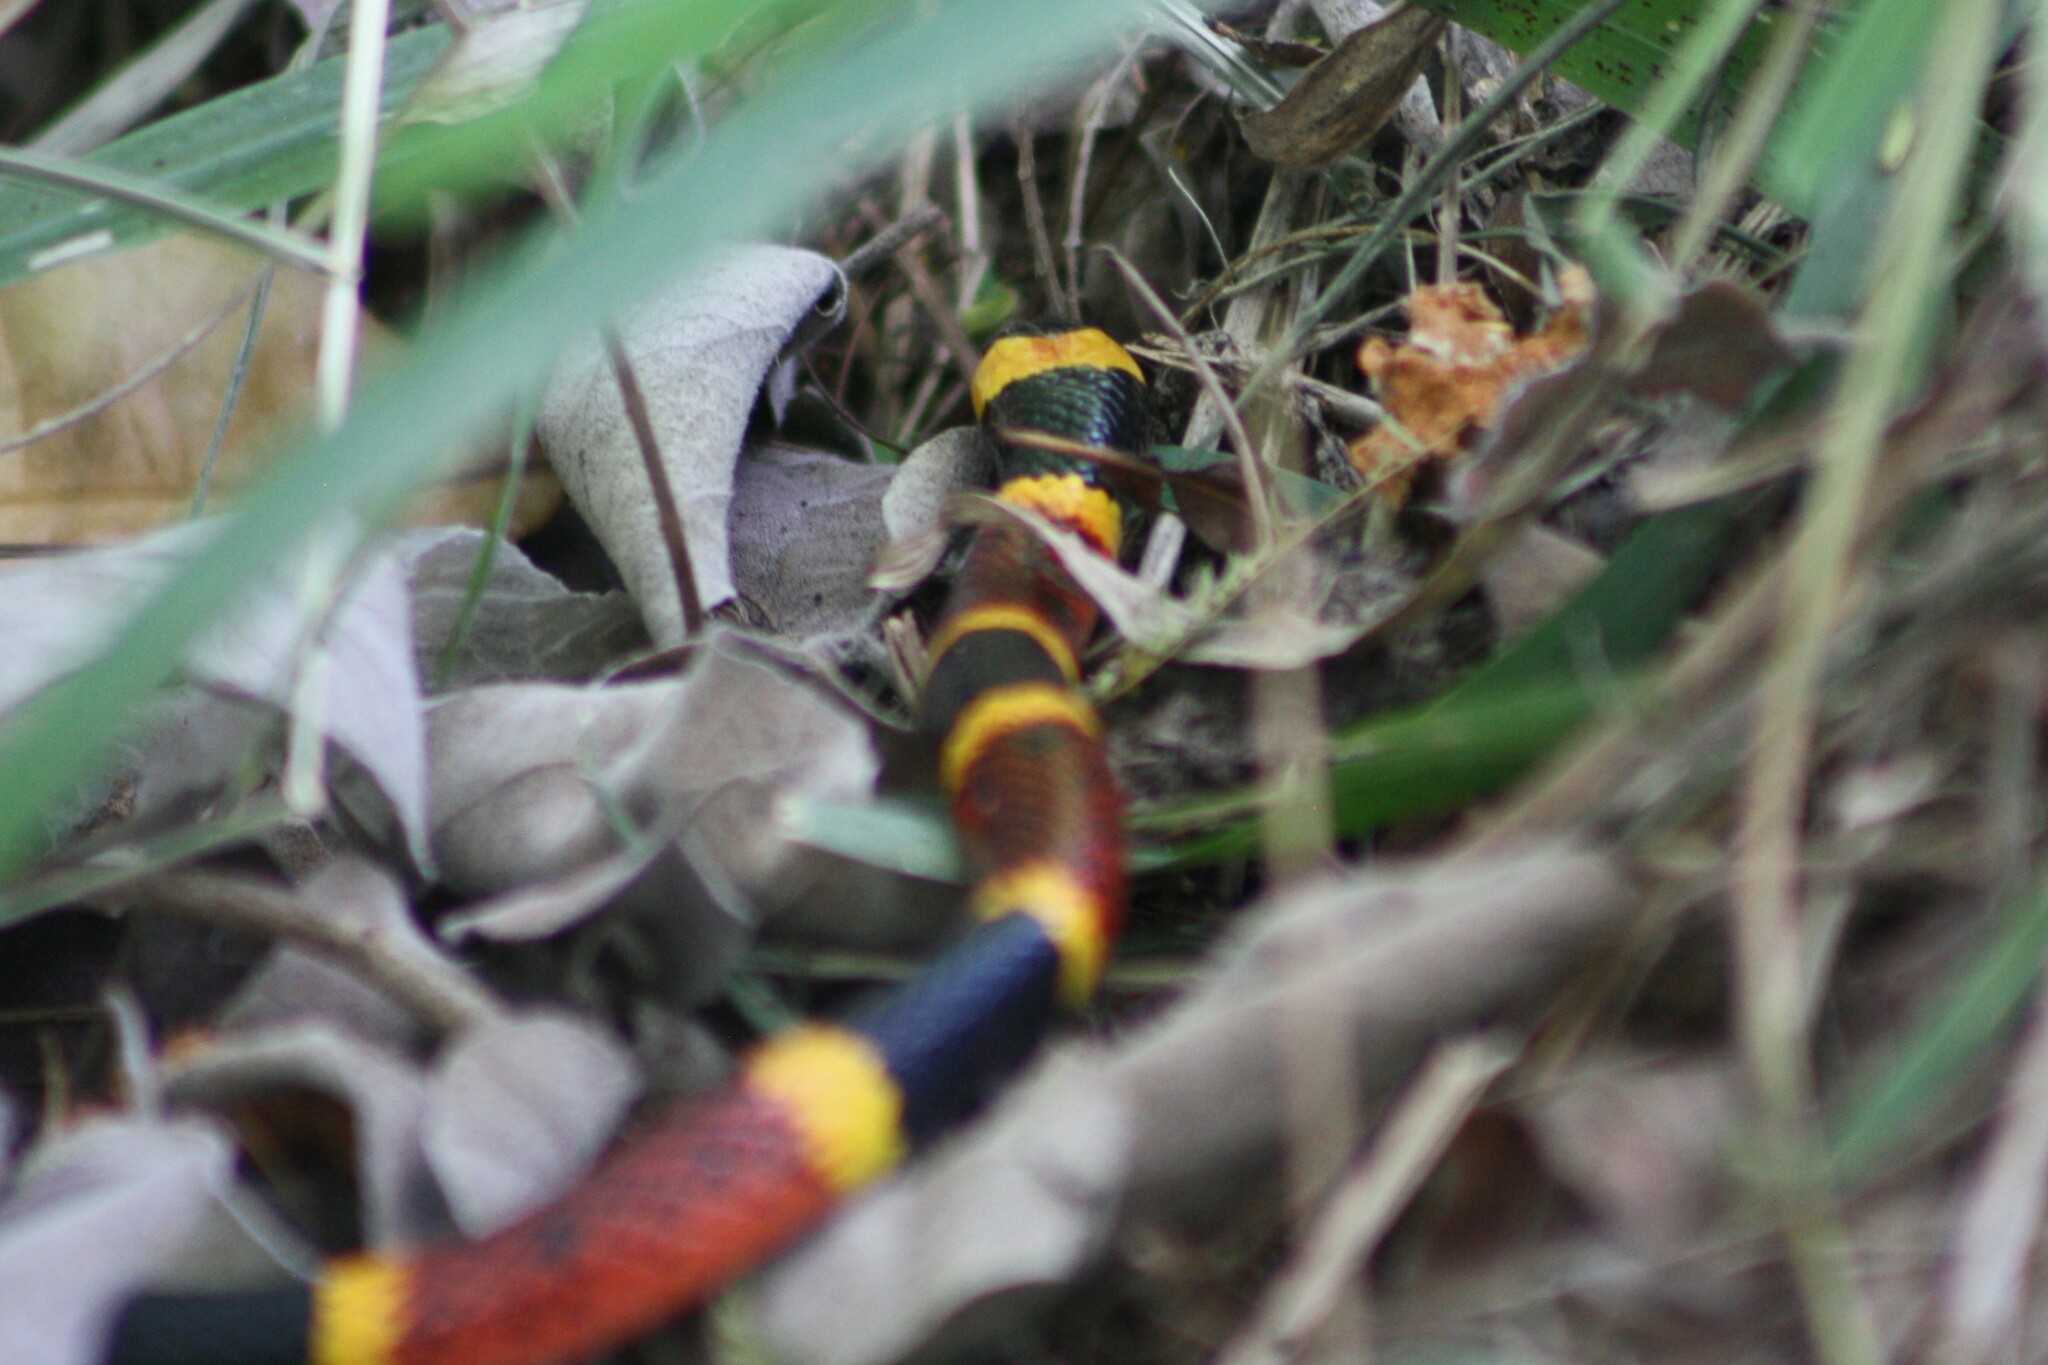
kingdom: Animalia
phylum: Chordata
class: Squamata
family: Elapidae
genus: Micrurus
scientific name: Micrurus tener
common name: Texas coral snake
